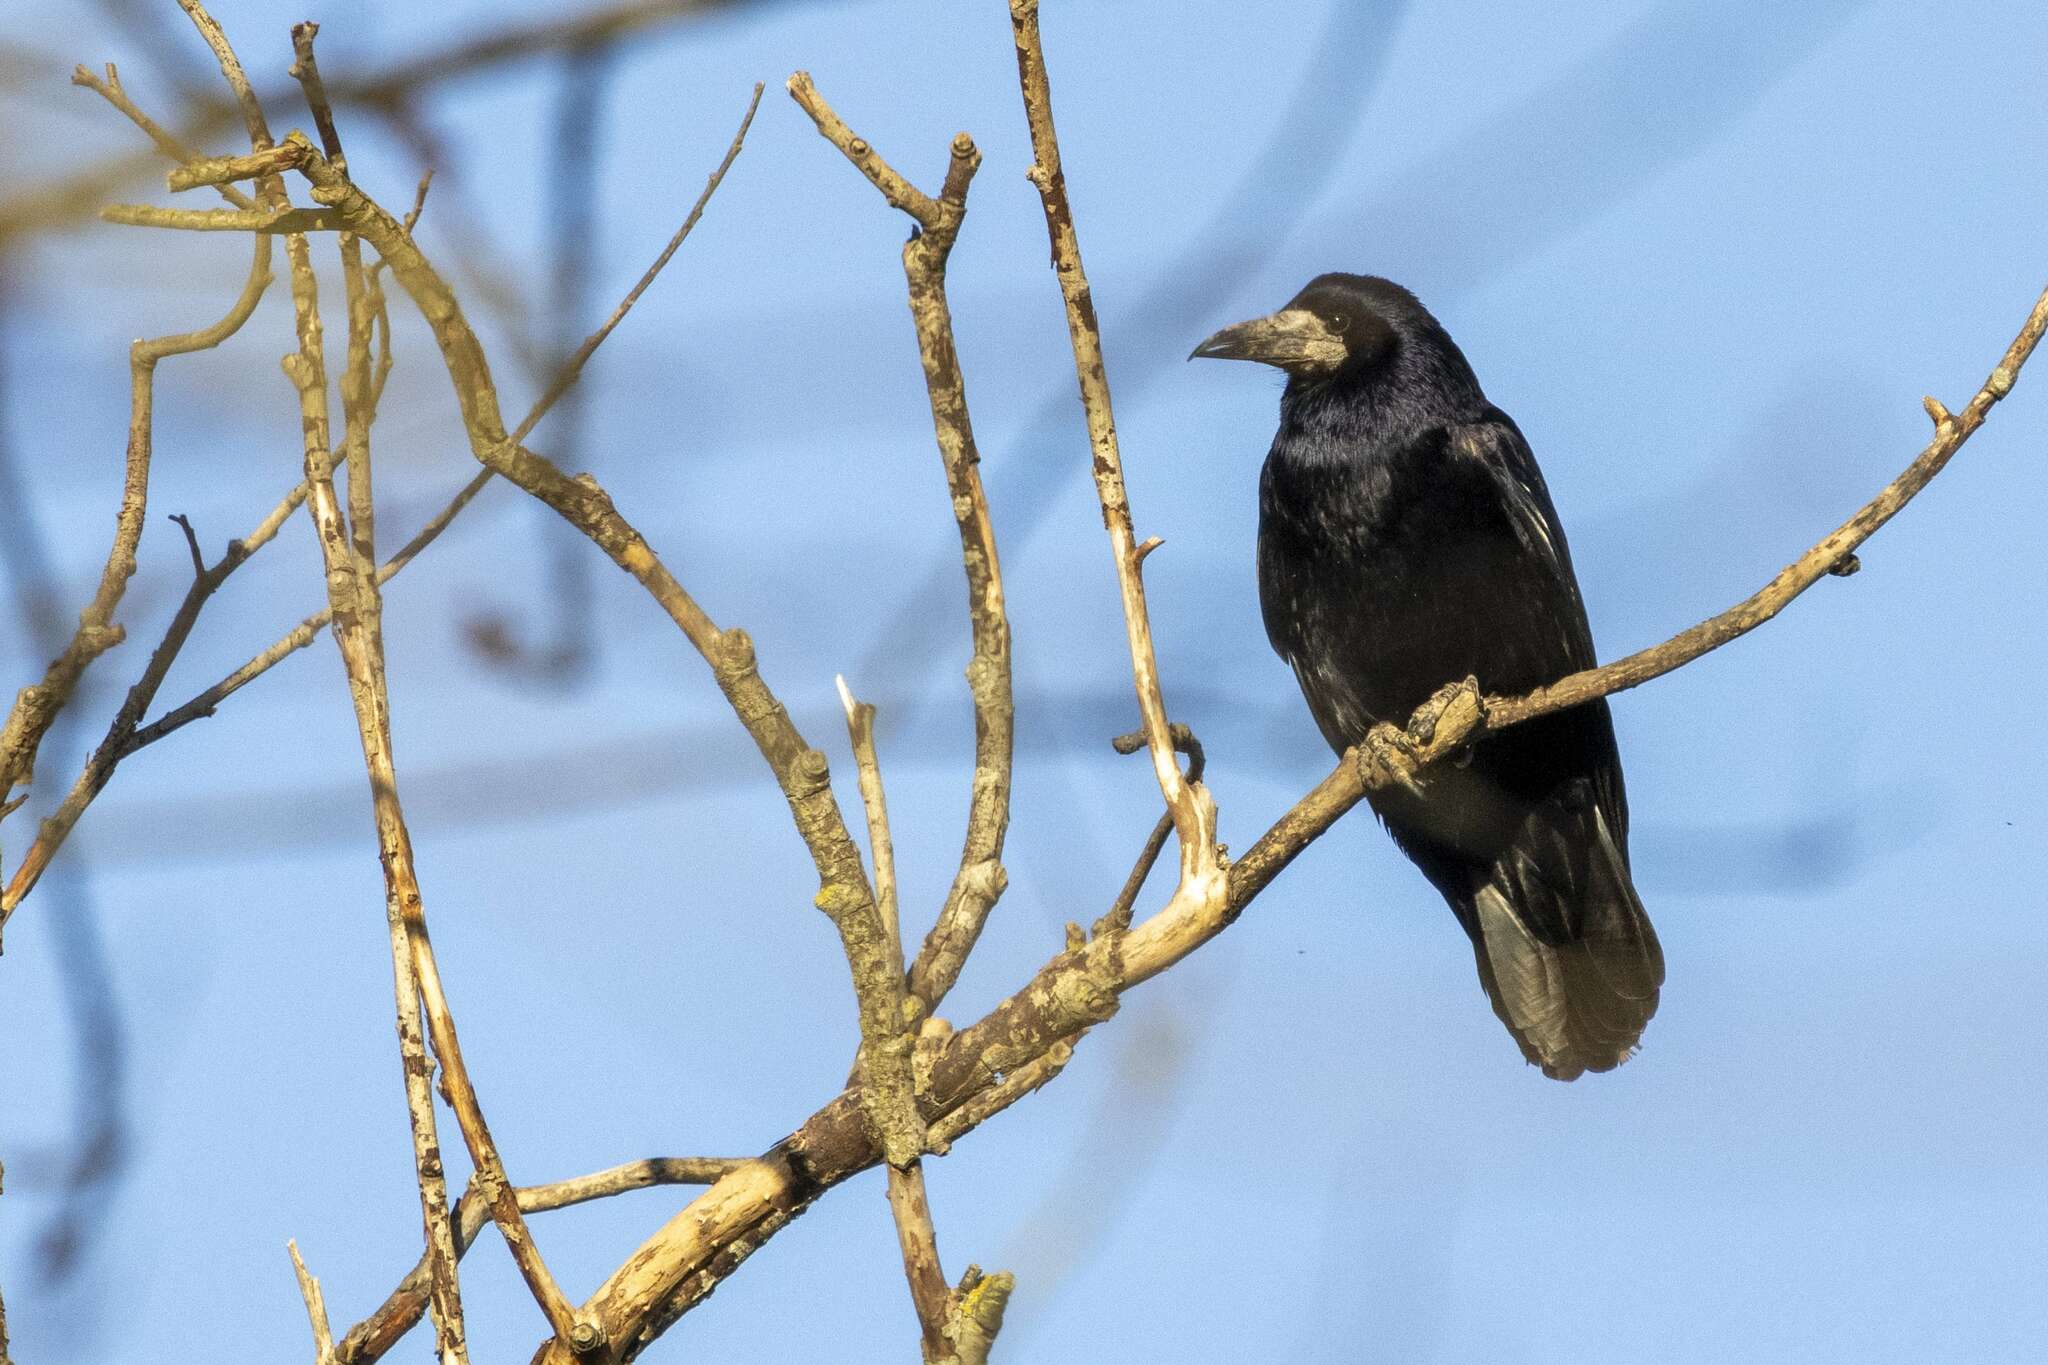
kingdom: Animalia
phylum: Chordata
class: Aves
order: Passeriformes
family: Corvidae
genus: Corvus
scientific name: Corvus frugilegus
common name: Rook
